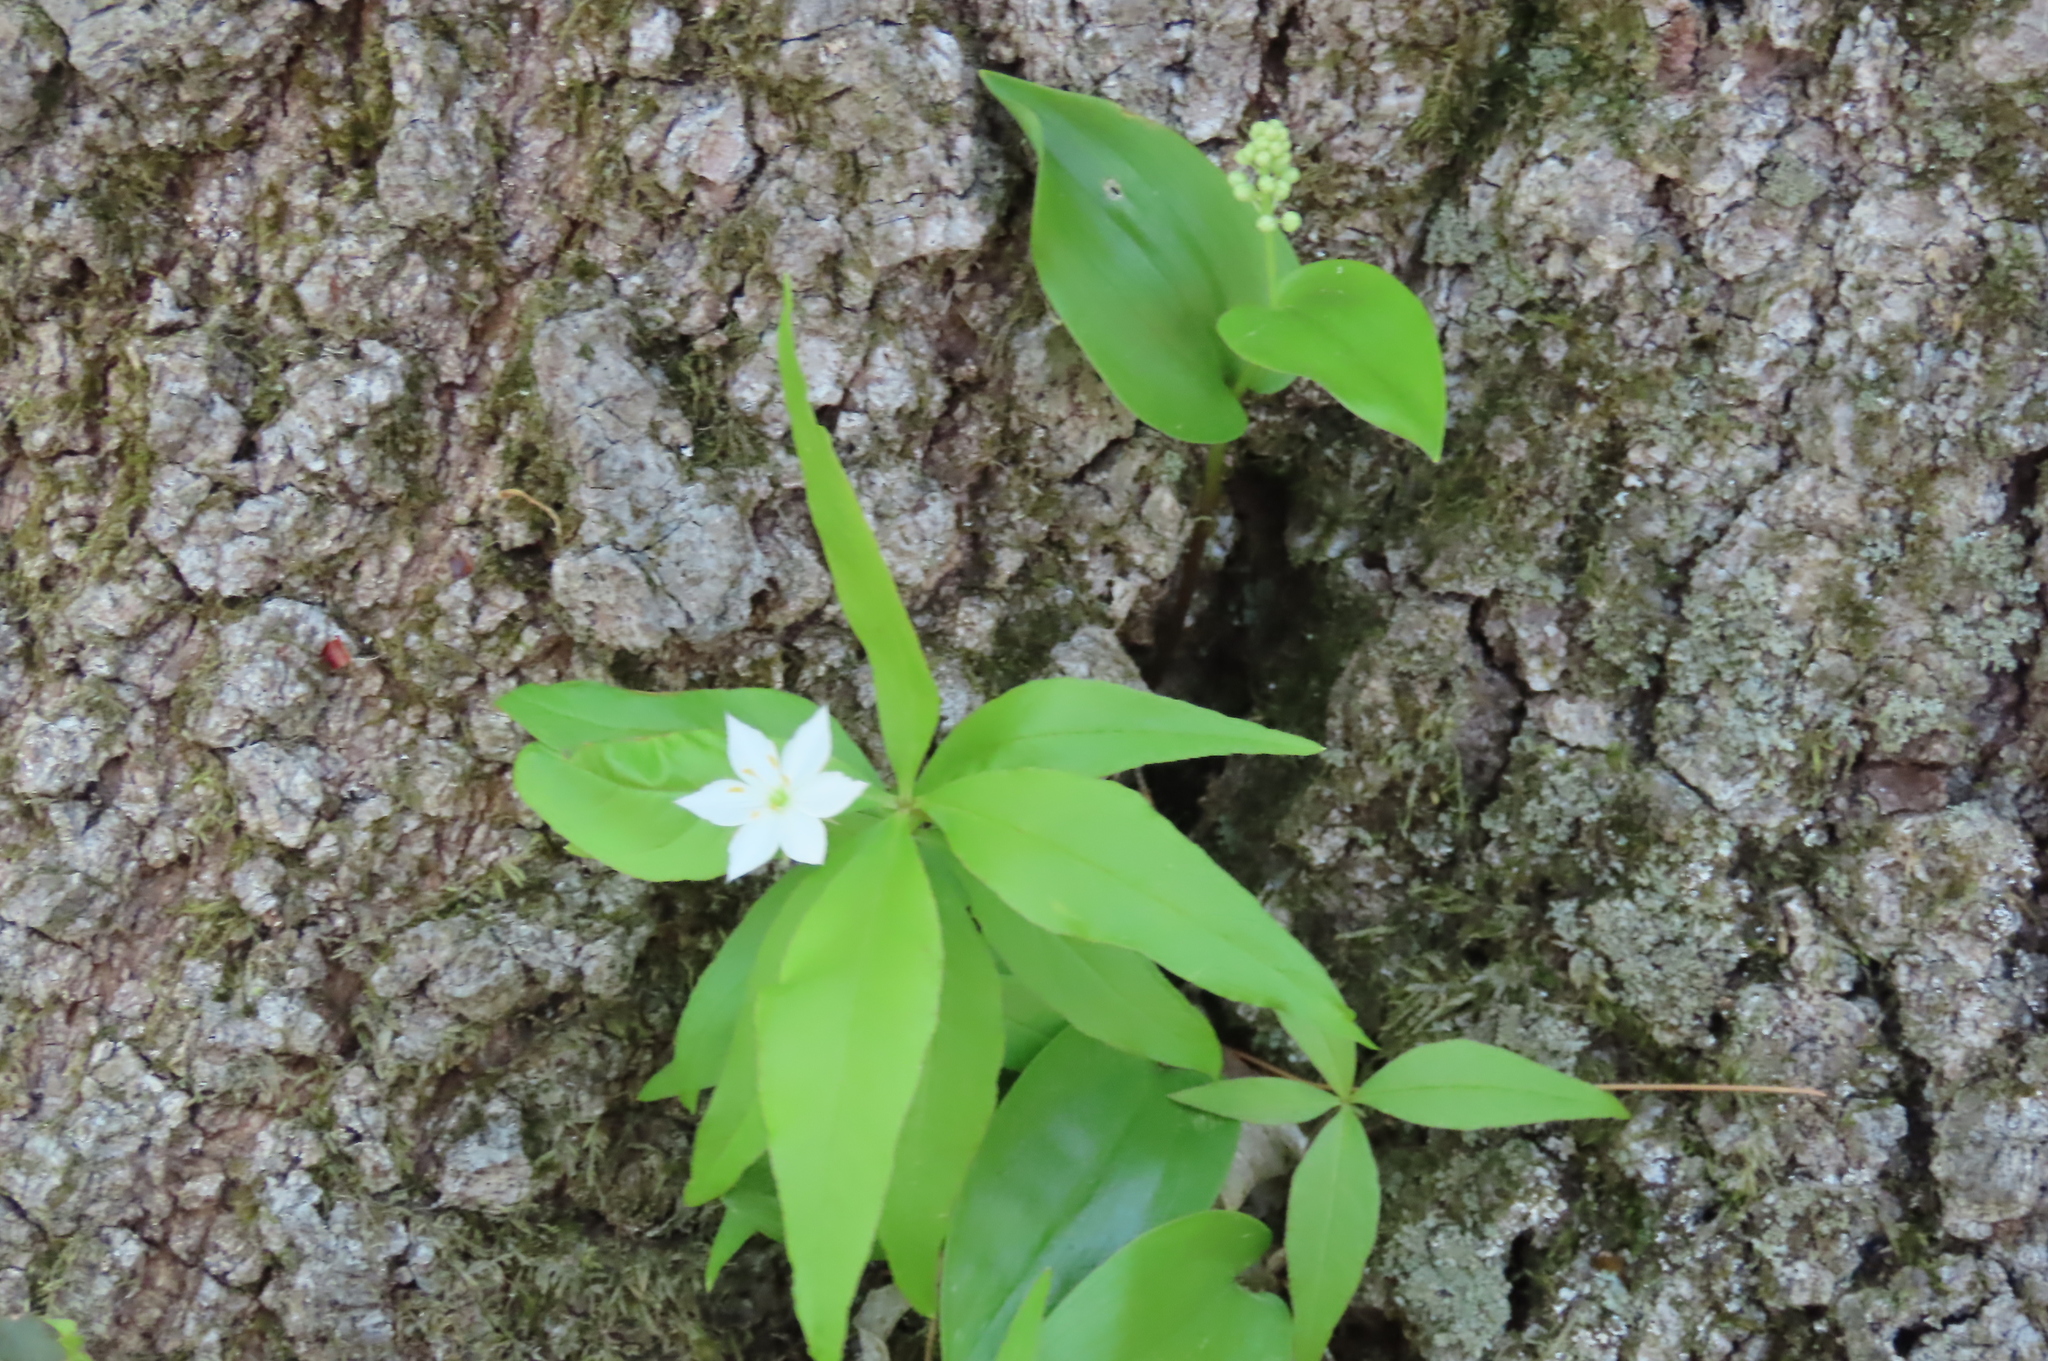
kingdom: Plantae
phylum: Tracheophyta
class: Magnoliopsida
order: Ericales
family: Primulaceae
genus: Lysimachia
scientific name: Lysimachia borealis
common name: American starflower
